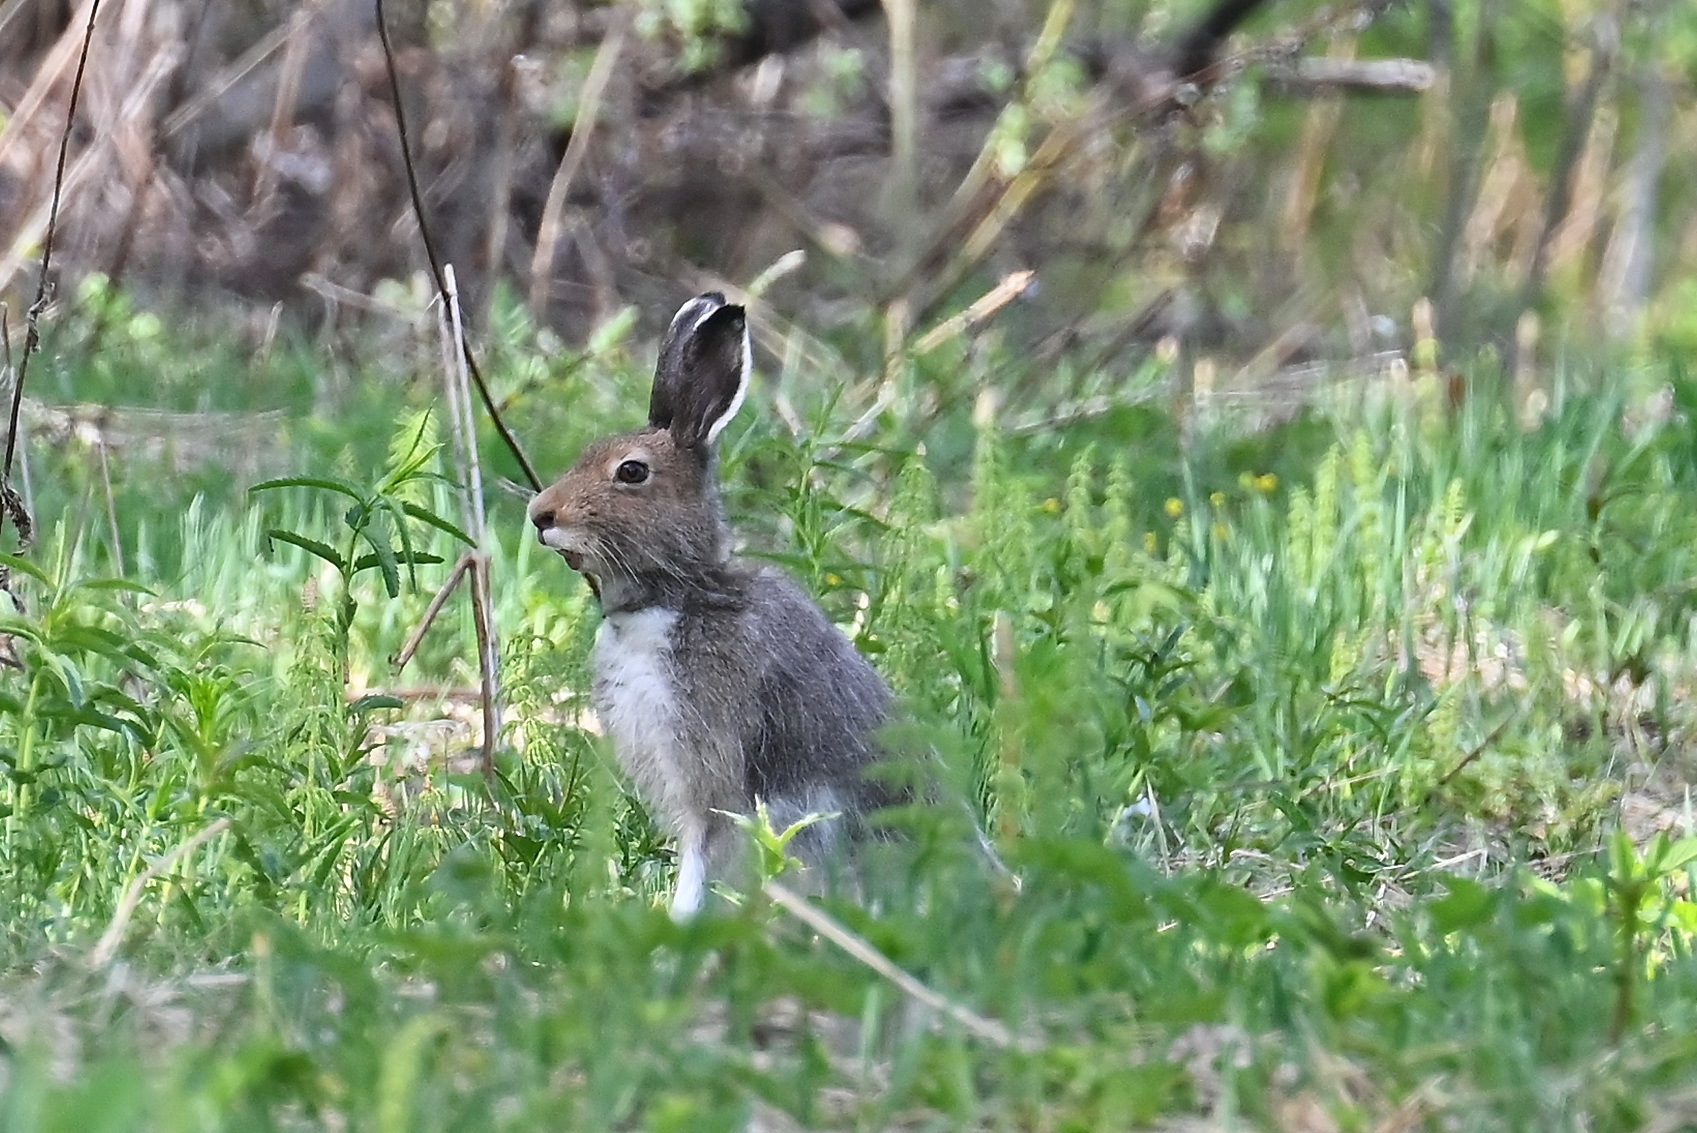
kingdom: Animalia
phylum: Chordata
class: Mammalia
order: Lagomorpha
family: Leporidae
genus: Lepus
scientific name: Lepus timidus
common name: Mountain hare
